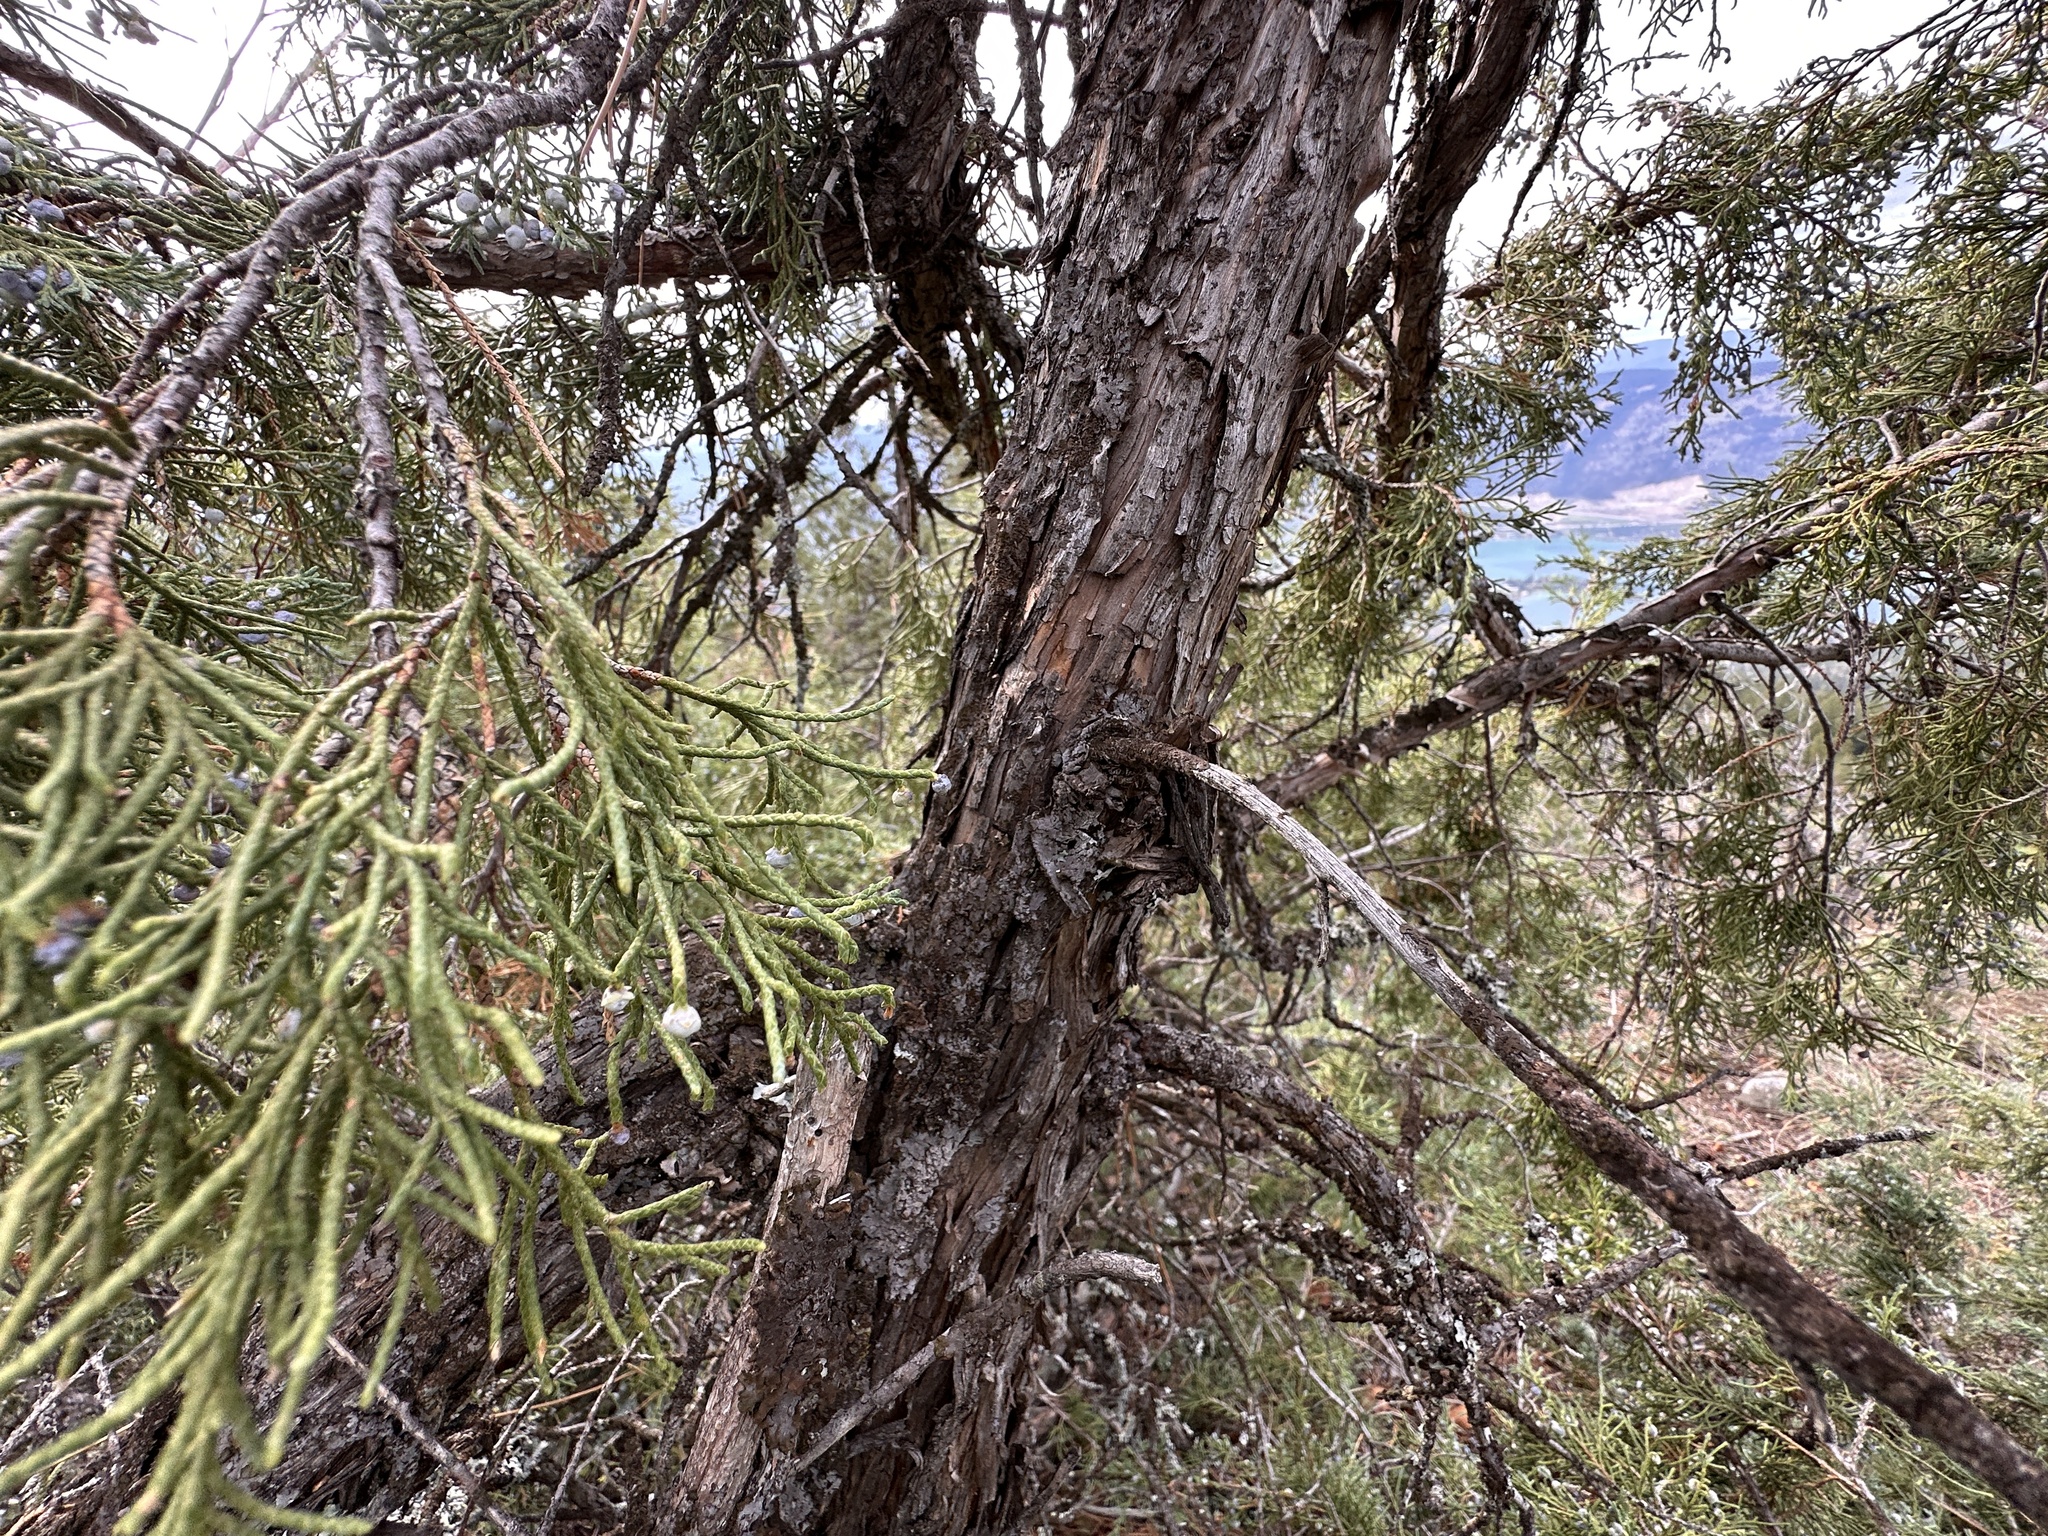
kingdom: Plantae
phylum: Tracheophyta
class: Pinopsida
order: Pinales
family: Cupressaceae
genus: Juniperus
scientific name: Juniperus scopulorum
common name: Rocky mountain juniper
